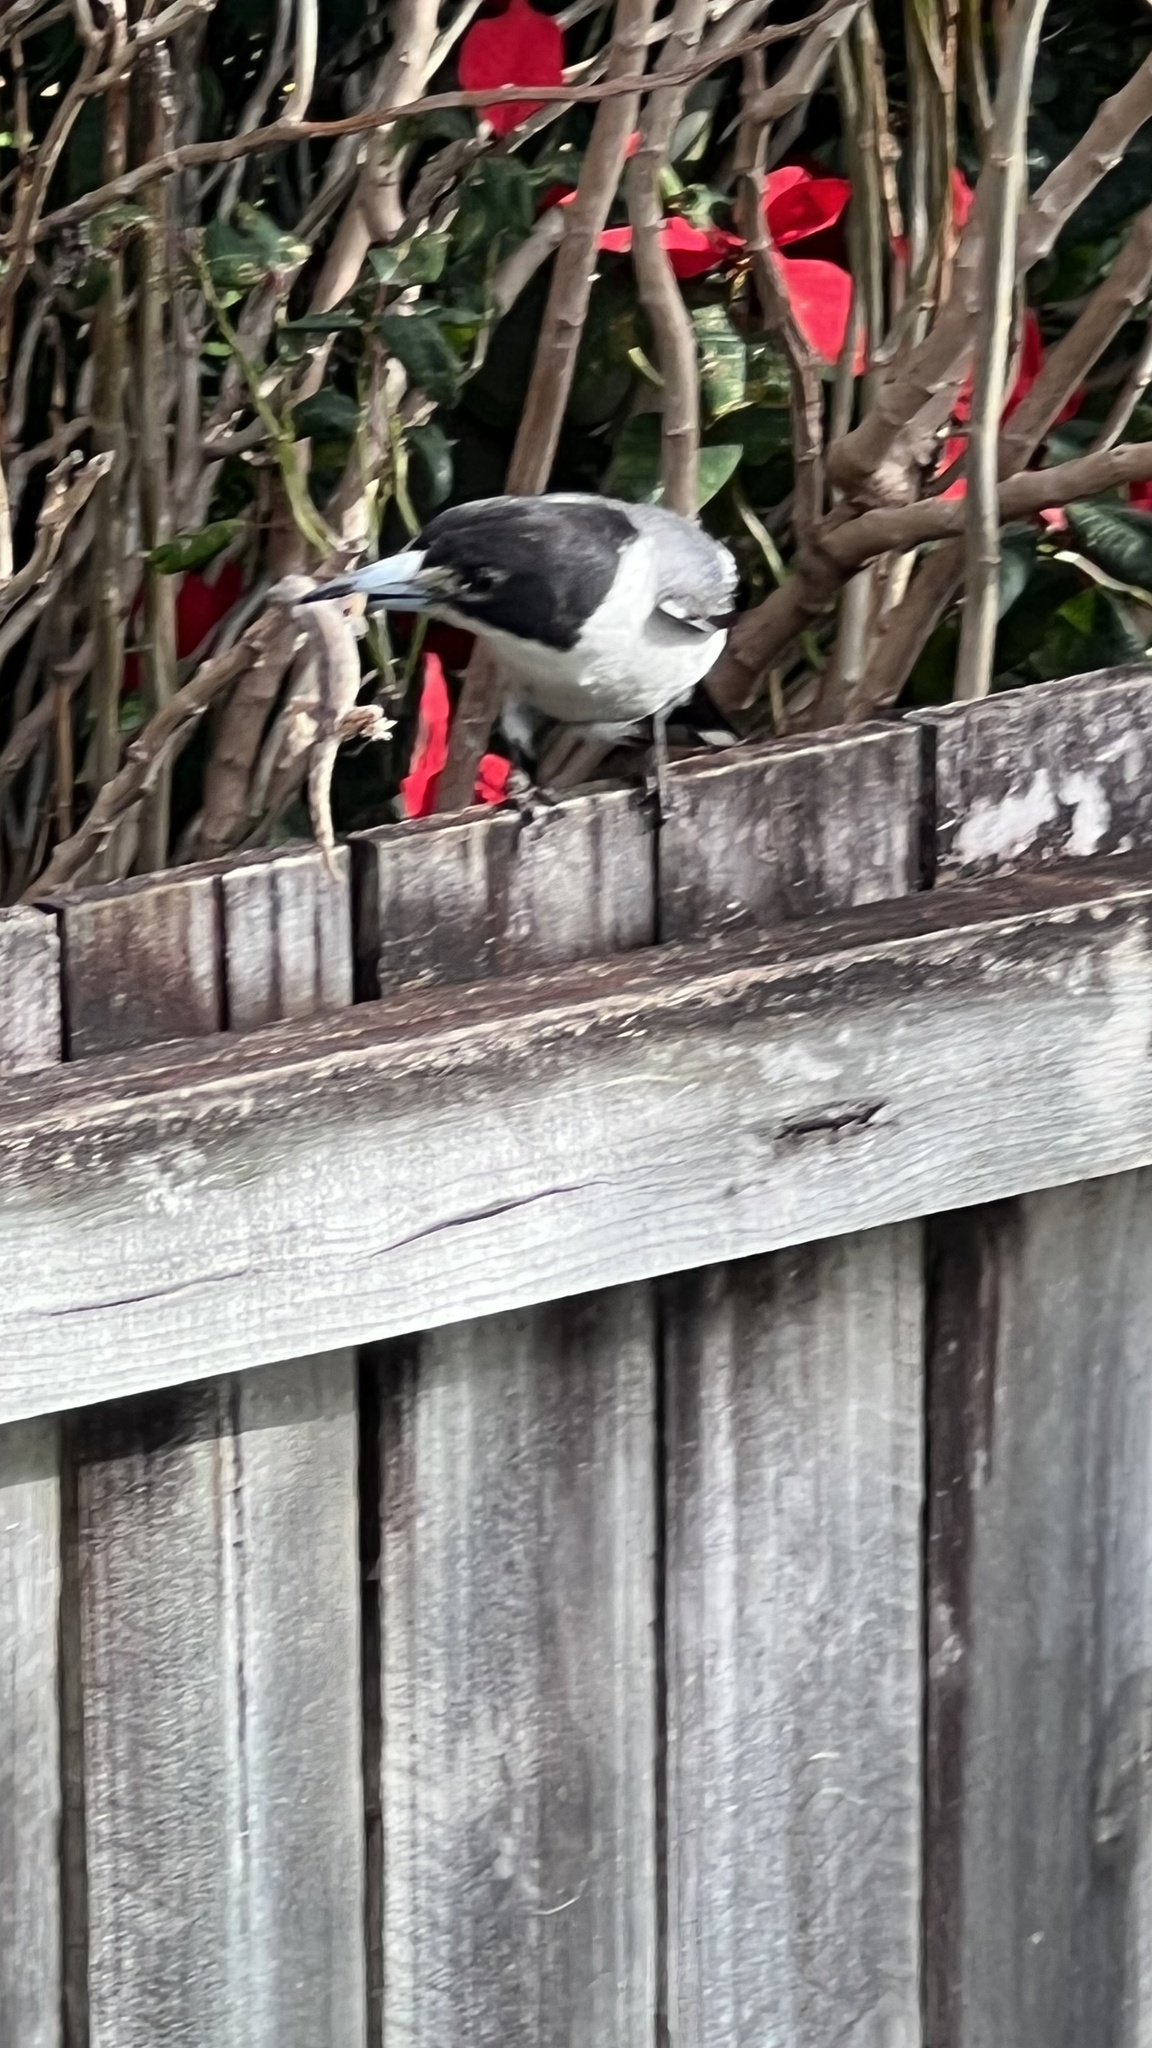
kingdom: Animalia
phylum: Chordata
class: Aves
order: Passeriformes
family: Cracticidae
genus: Cracticus
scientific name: Cracticus torquatus
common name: Grey butcherbird
